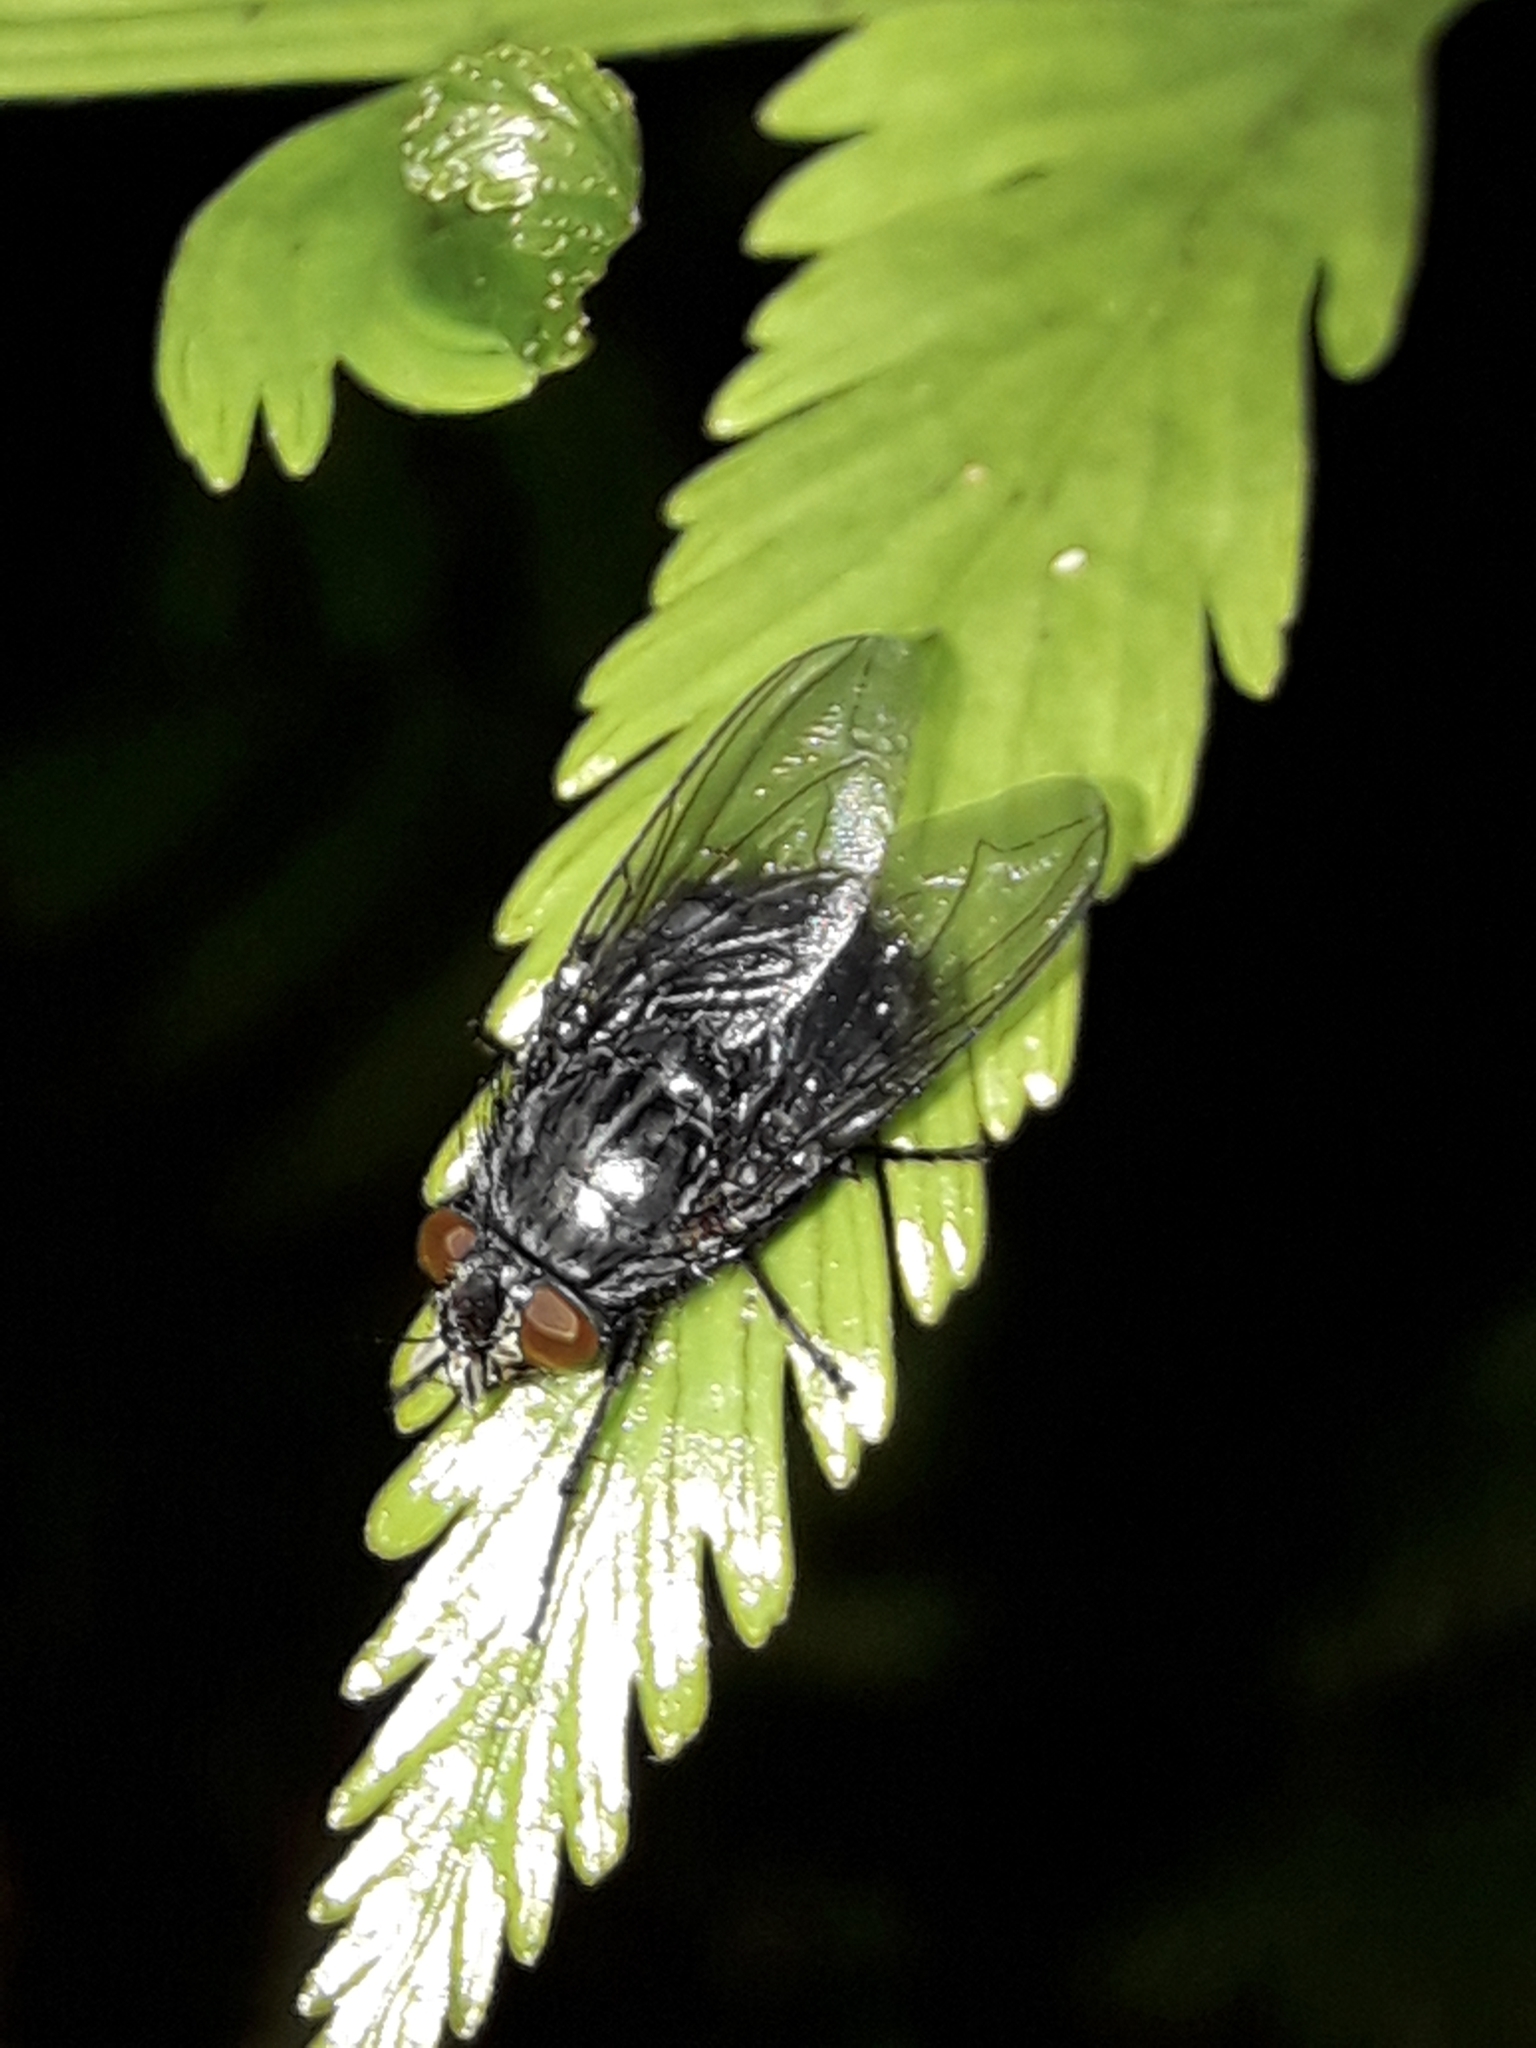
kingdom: Animalia
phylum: Arthropoda
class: Insecta
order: Diptera
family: Calliphoridae
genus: Calliphora
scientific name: Calliphora vicina
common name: Common blow flie
